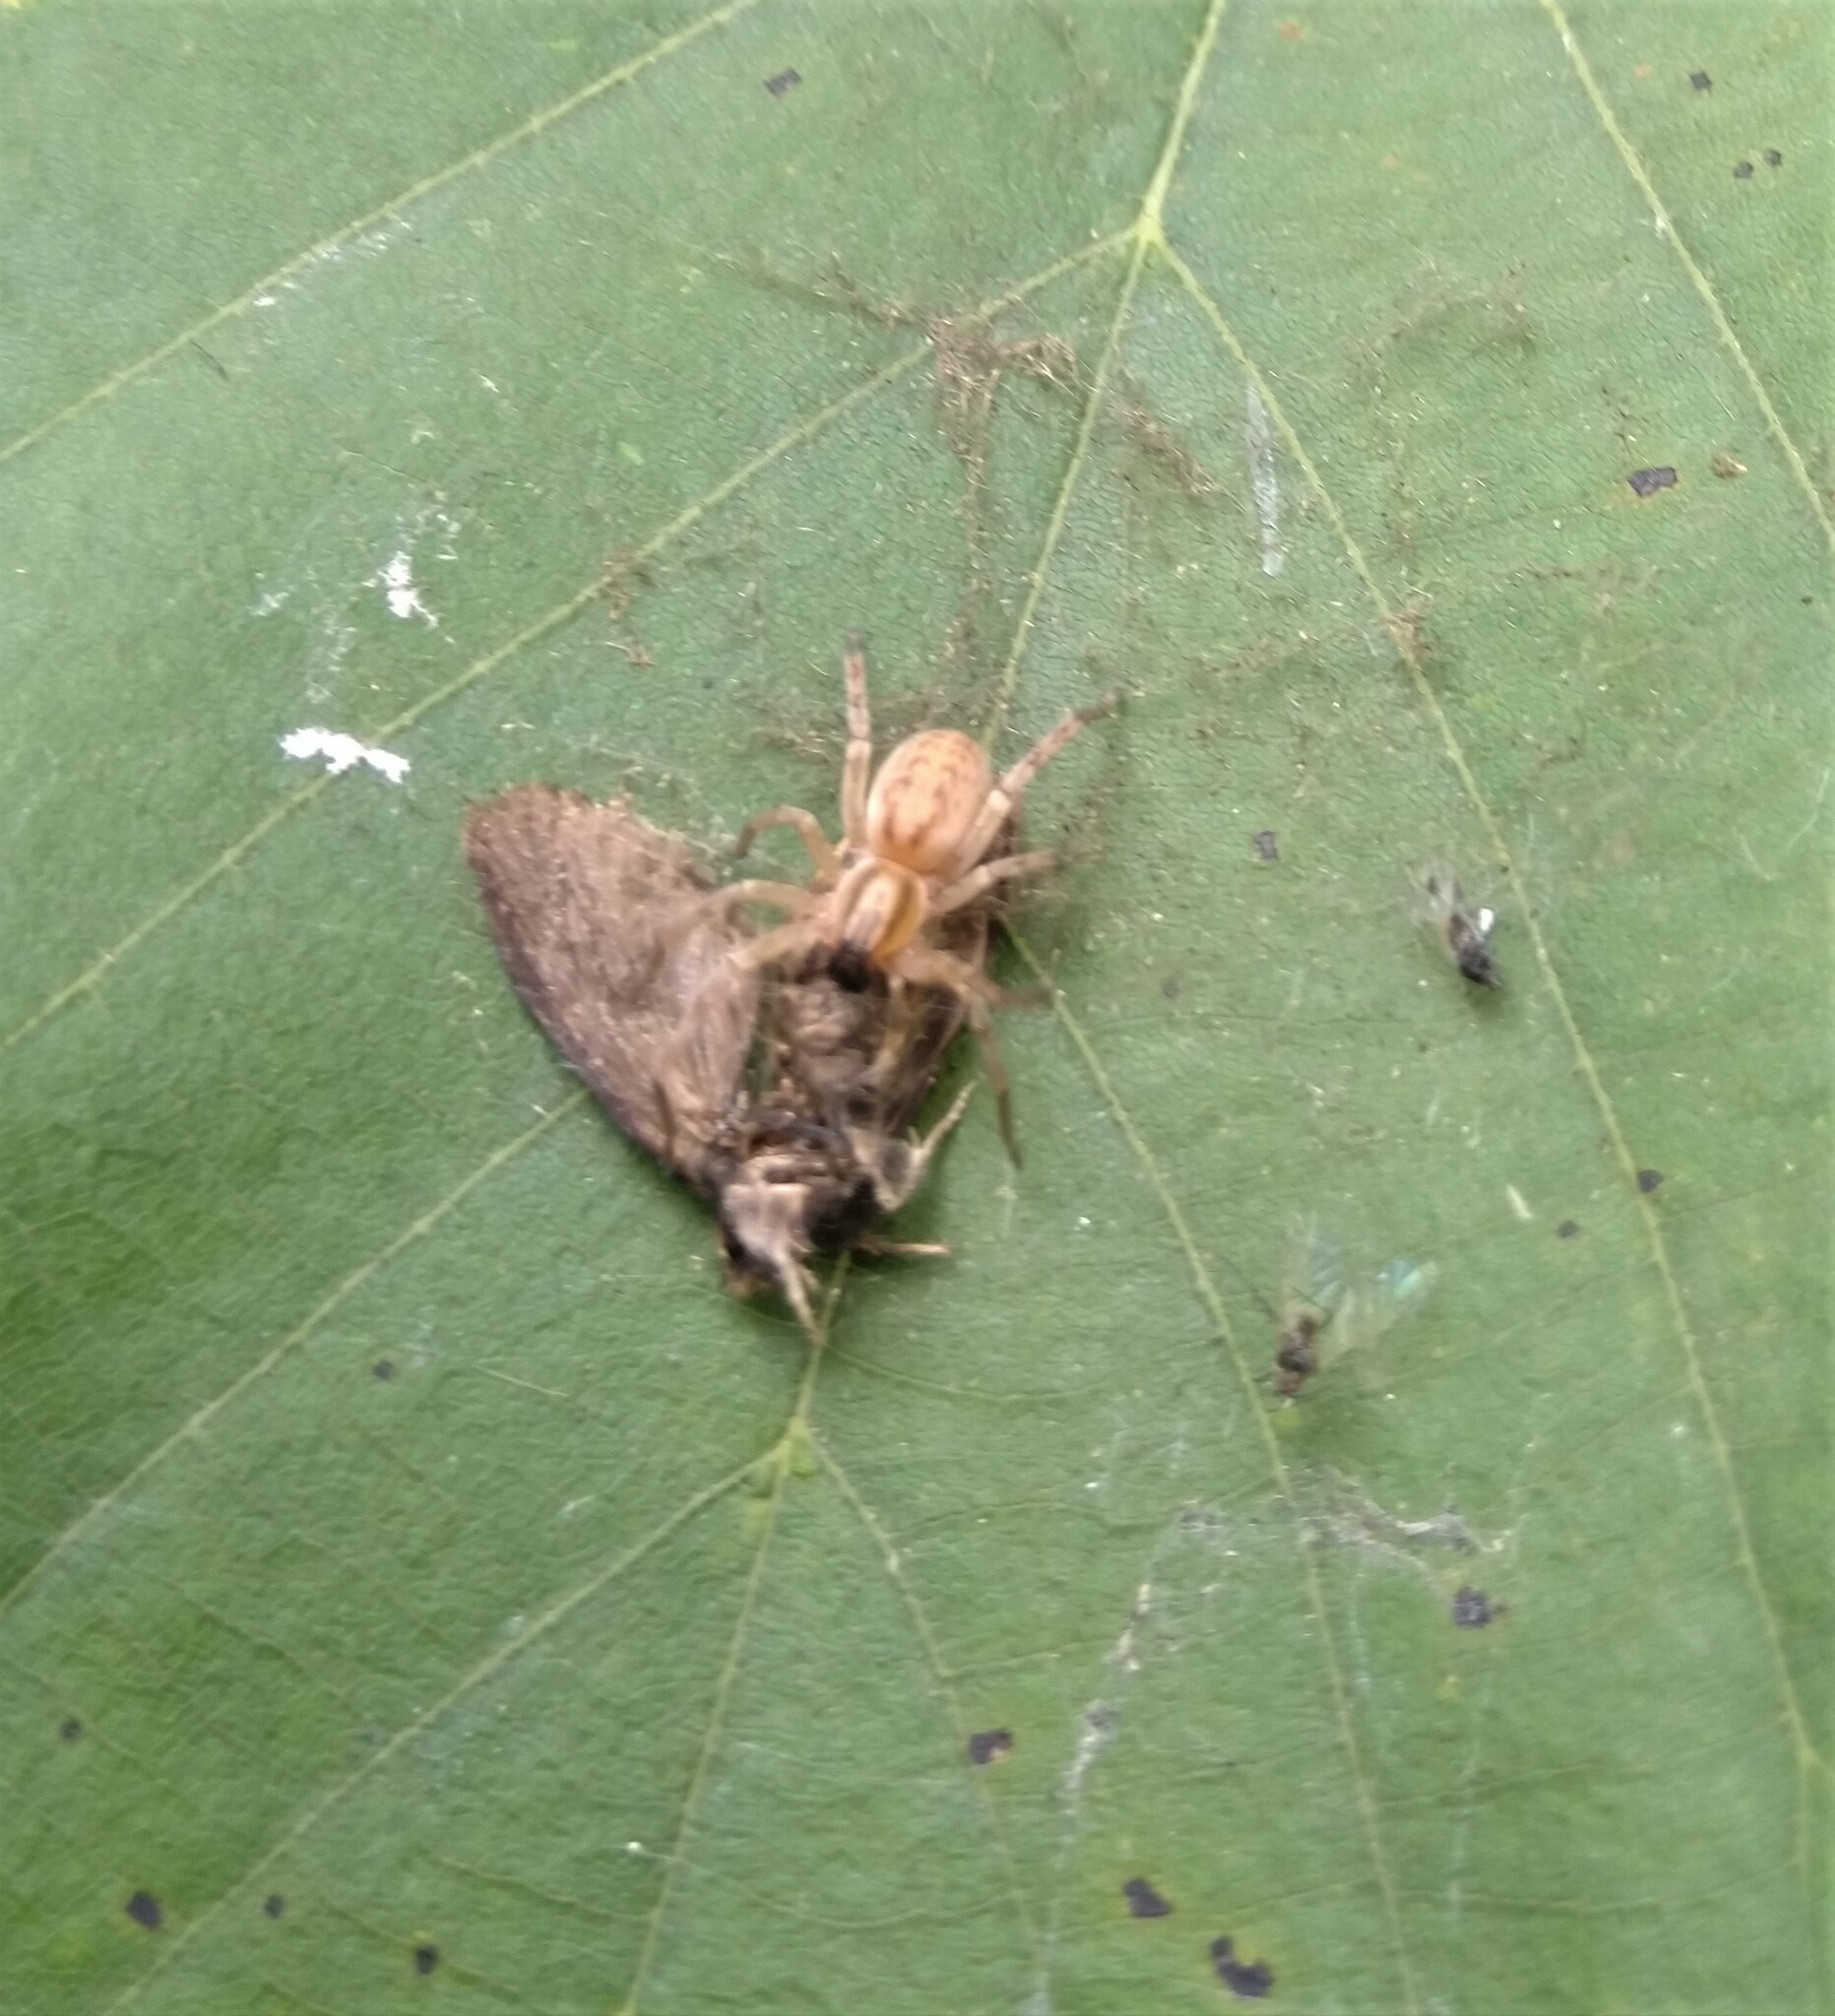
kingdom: Animalia
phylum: Arthropoda
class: Arachnida
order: Araneae
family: Anyphaenidae
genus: Hibana
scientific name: Hibana gracilis
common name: Garden ghost spider
